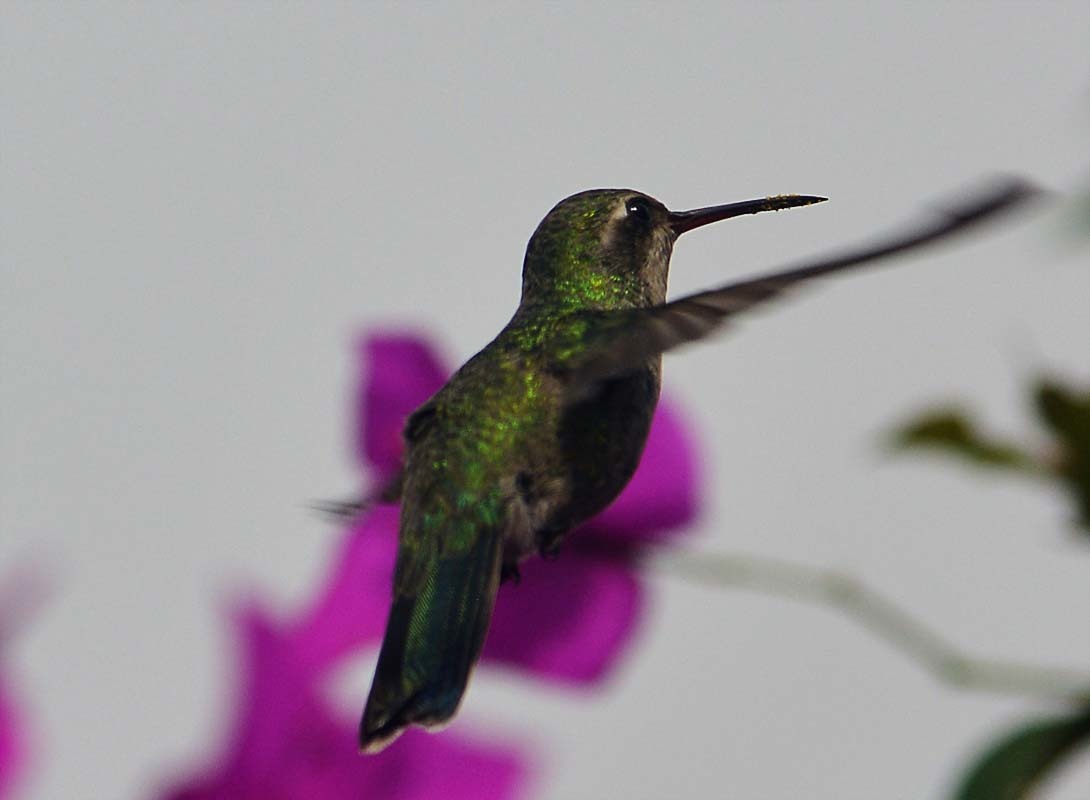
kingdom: Animalia
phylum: Chordata
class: Aves
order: Apodiformes
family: Trochilidae
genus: Cynanthus
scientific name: Cynanthus latirostris
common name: Broad-billed hummingbird
